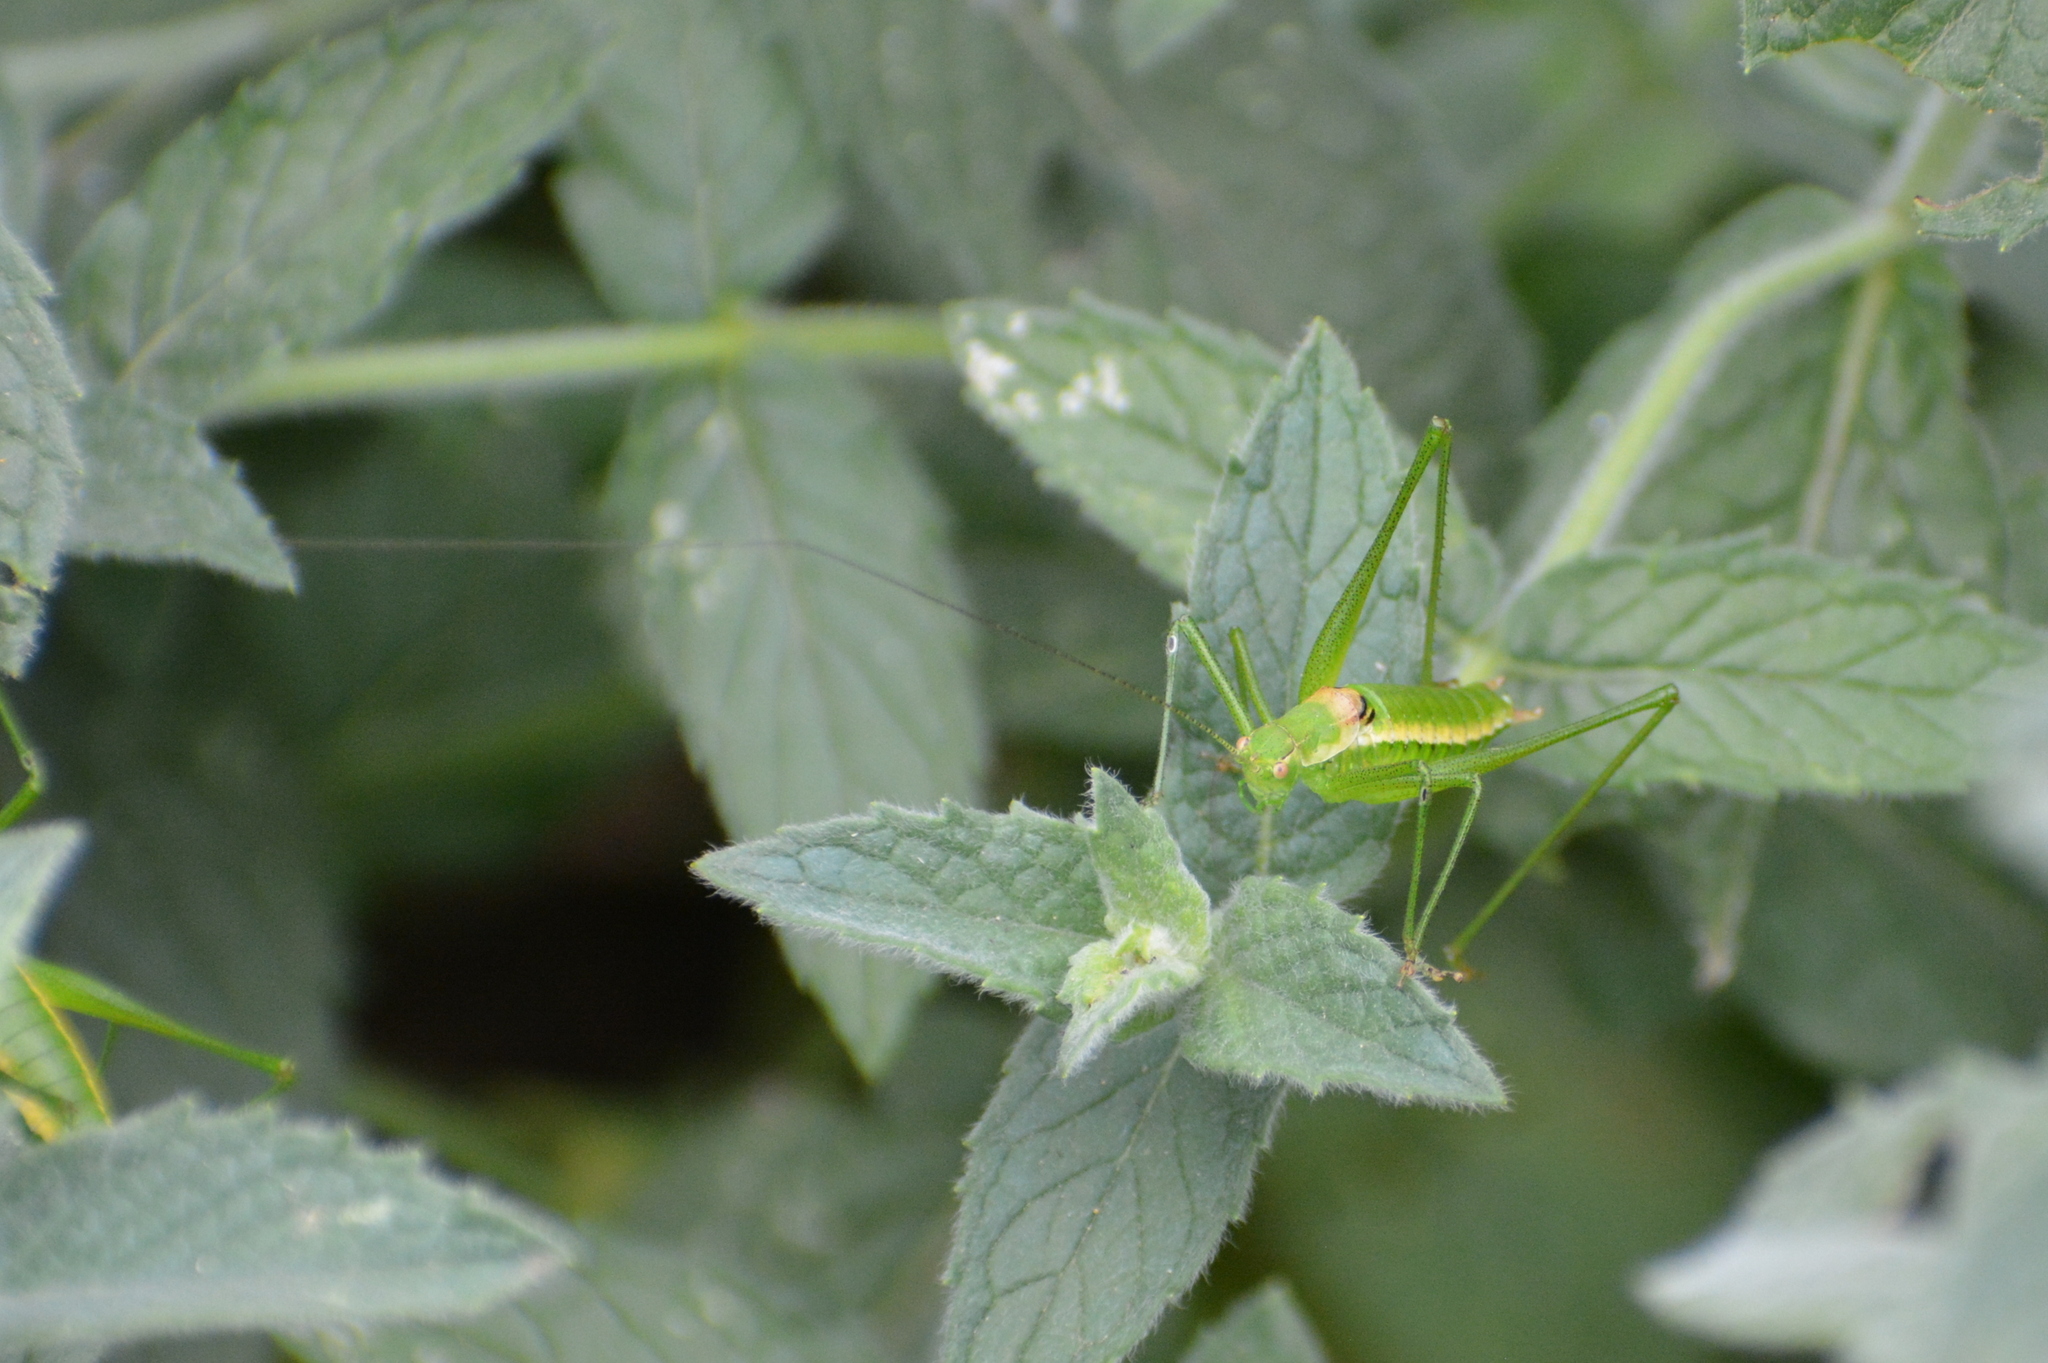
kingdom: Animalia
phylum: Arthropoda
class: Insecta
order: Orthoptera
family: Tettigoniidae
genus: Leptophyes
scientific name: Leptophyes boscii
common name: Balkan speckled bush-cricket
